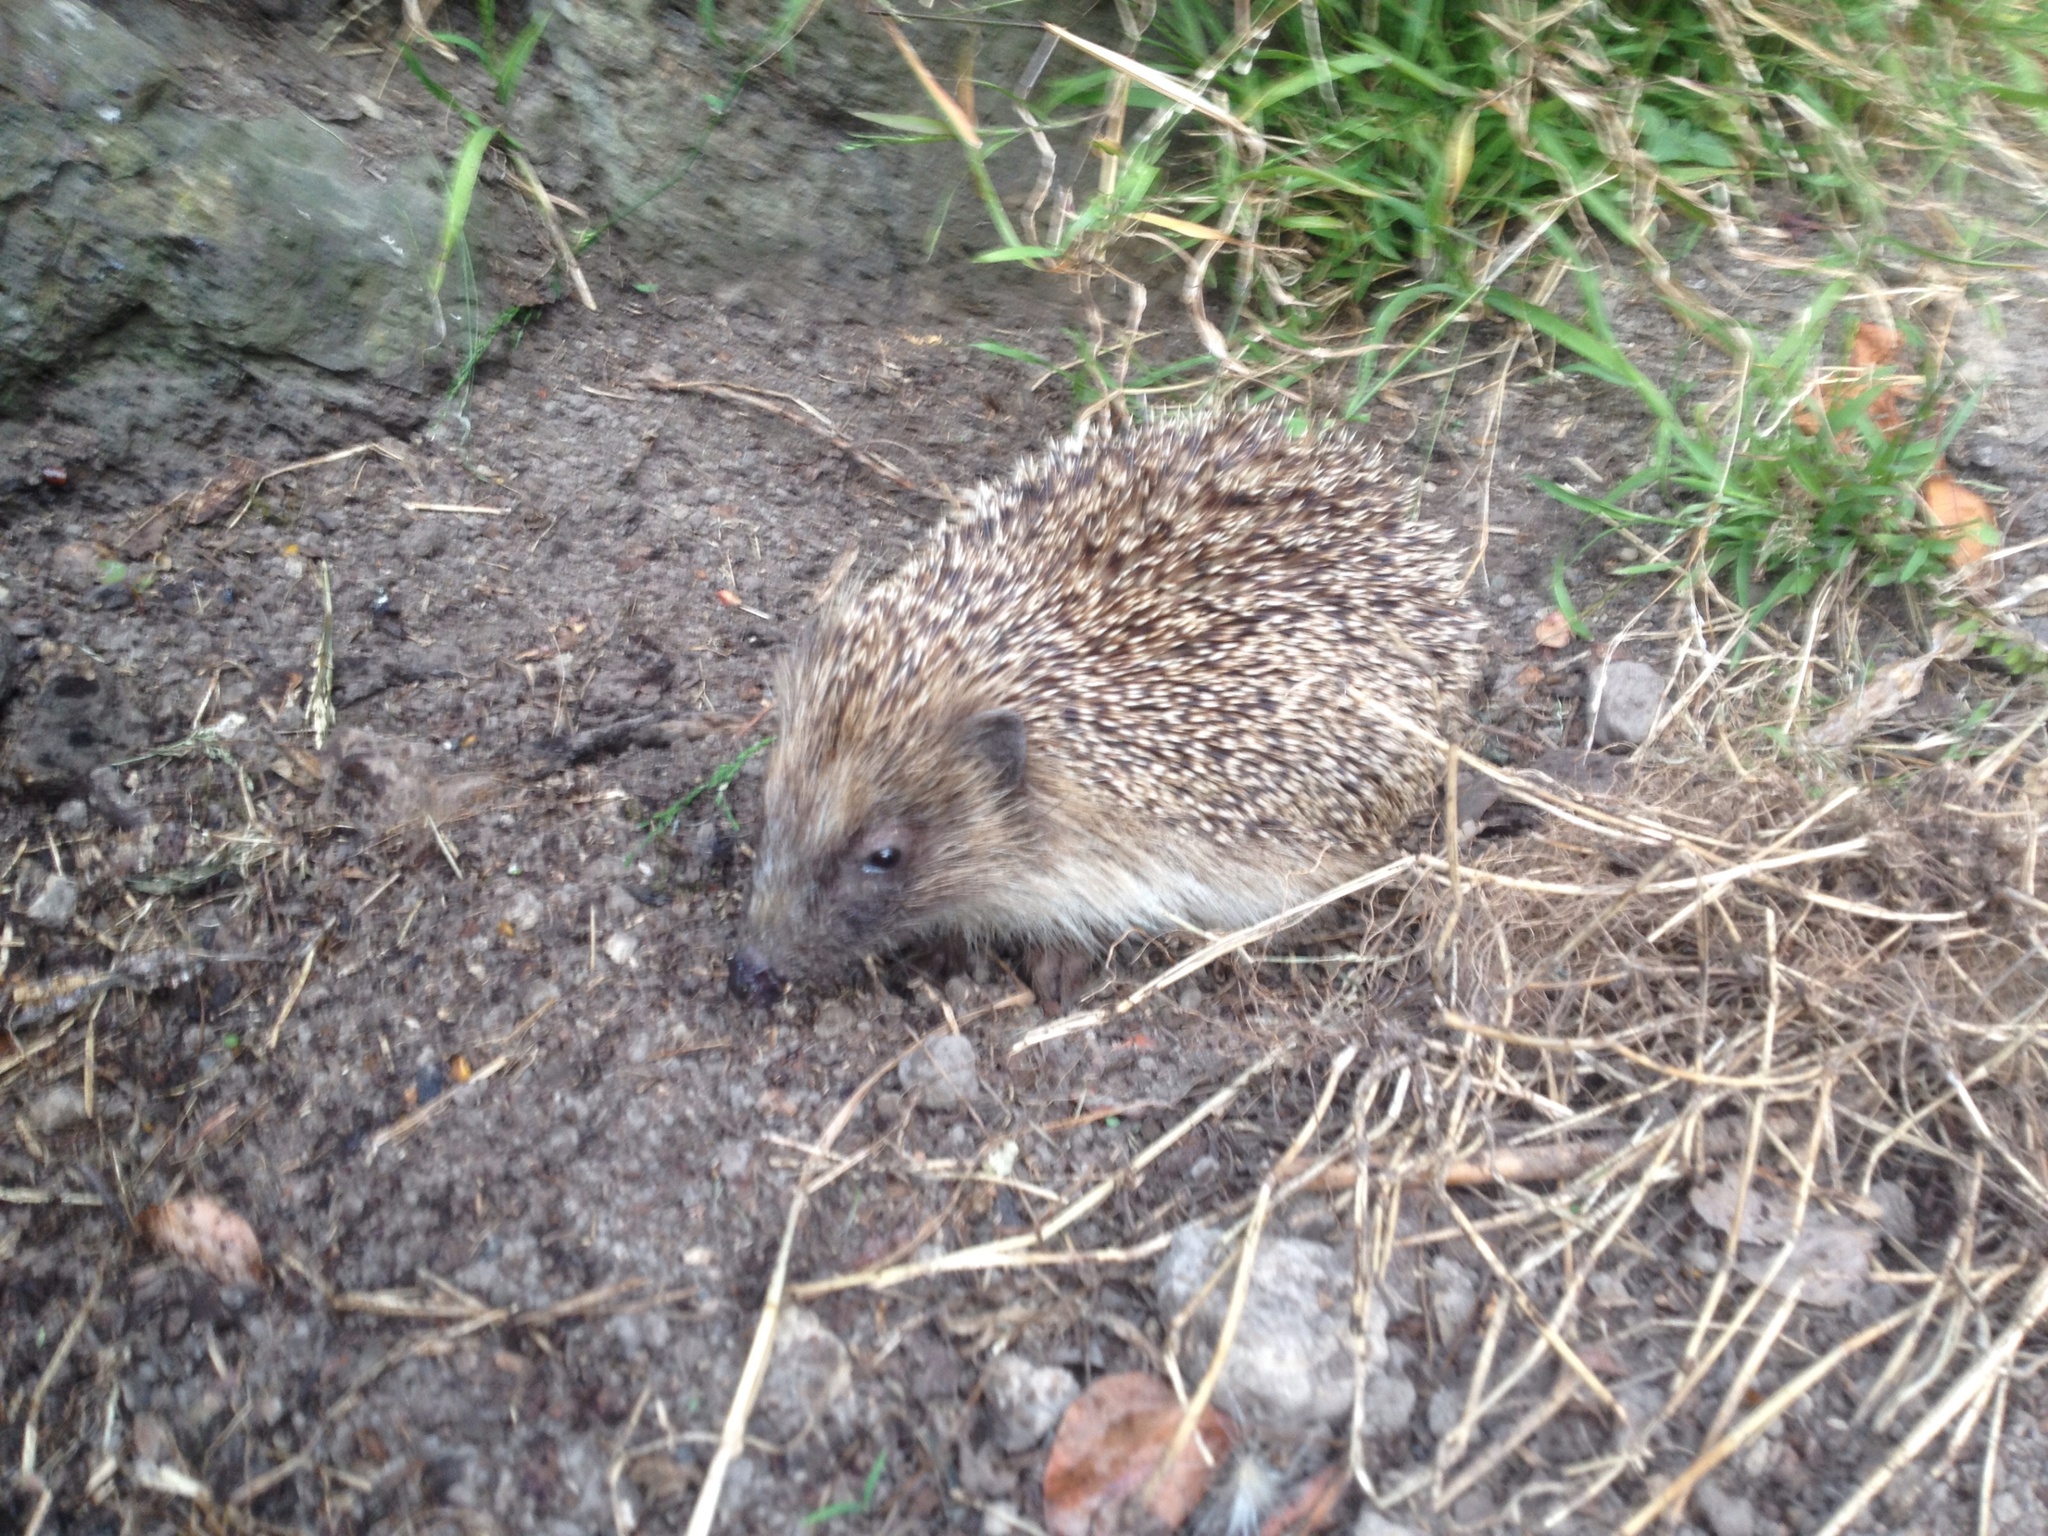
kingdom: Animalia
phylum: Chordata
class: Mammalia
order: Erinaceomorpha
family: Erinaceidae
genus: Erinaceus
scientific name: Erinaceus europaeus
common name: West european hedgehog
